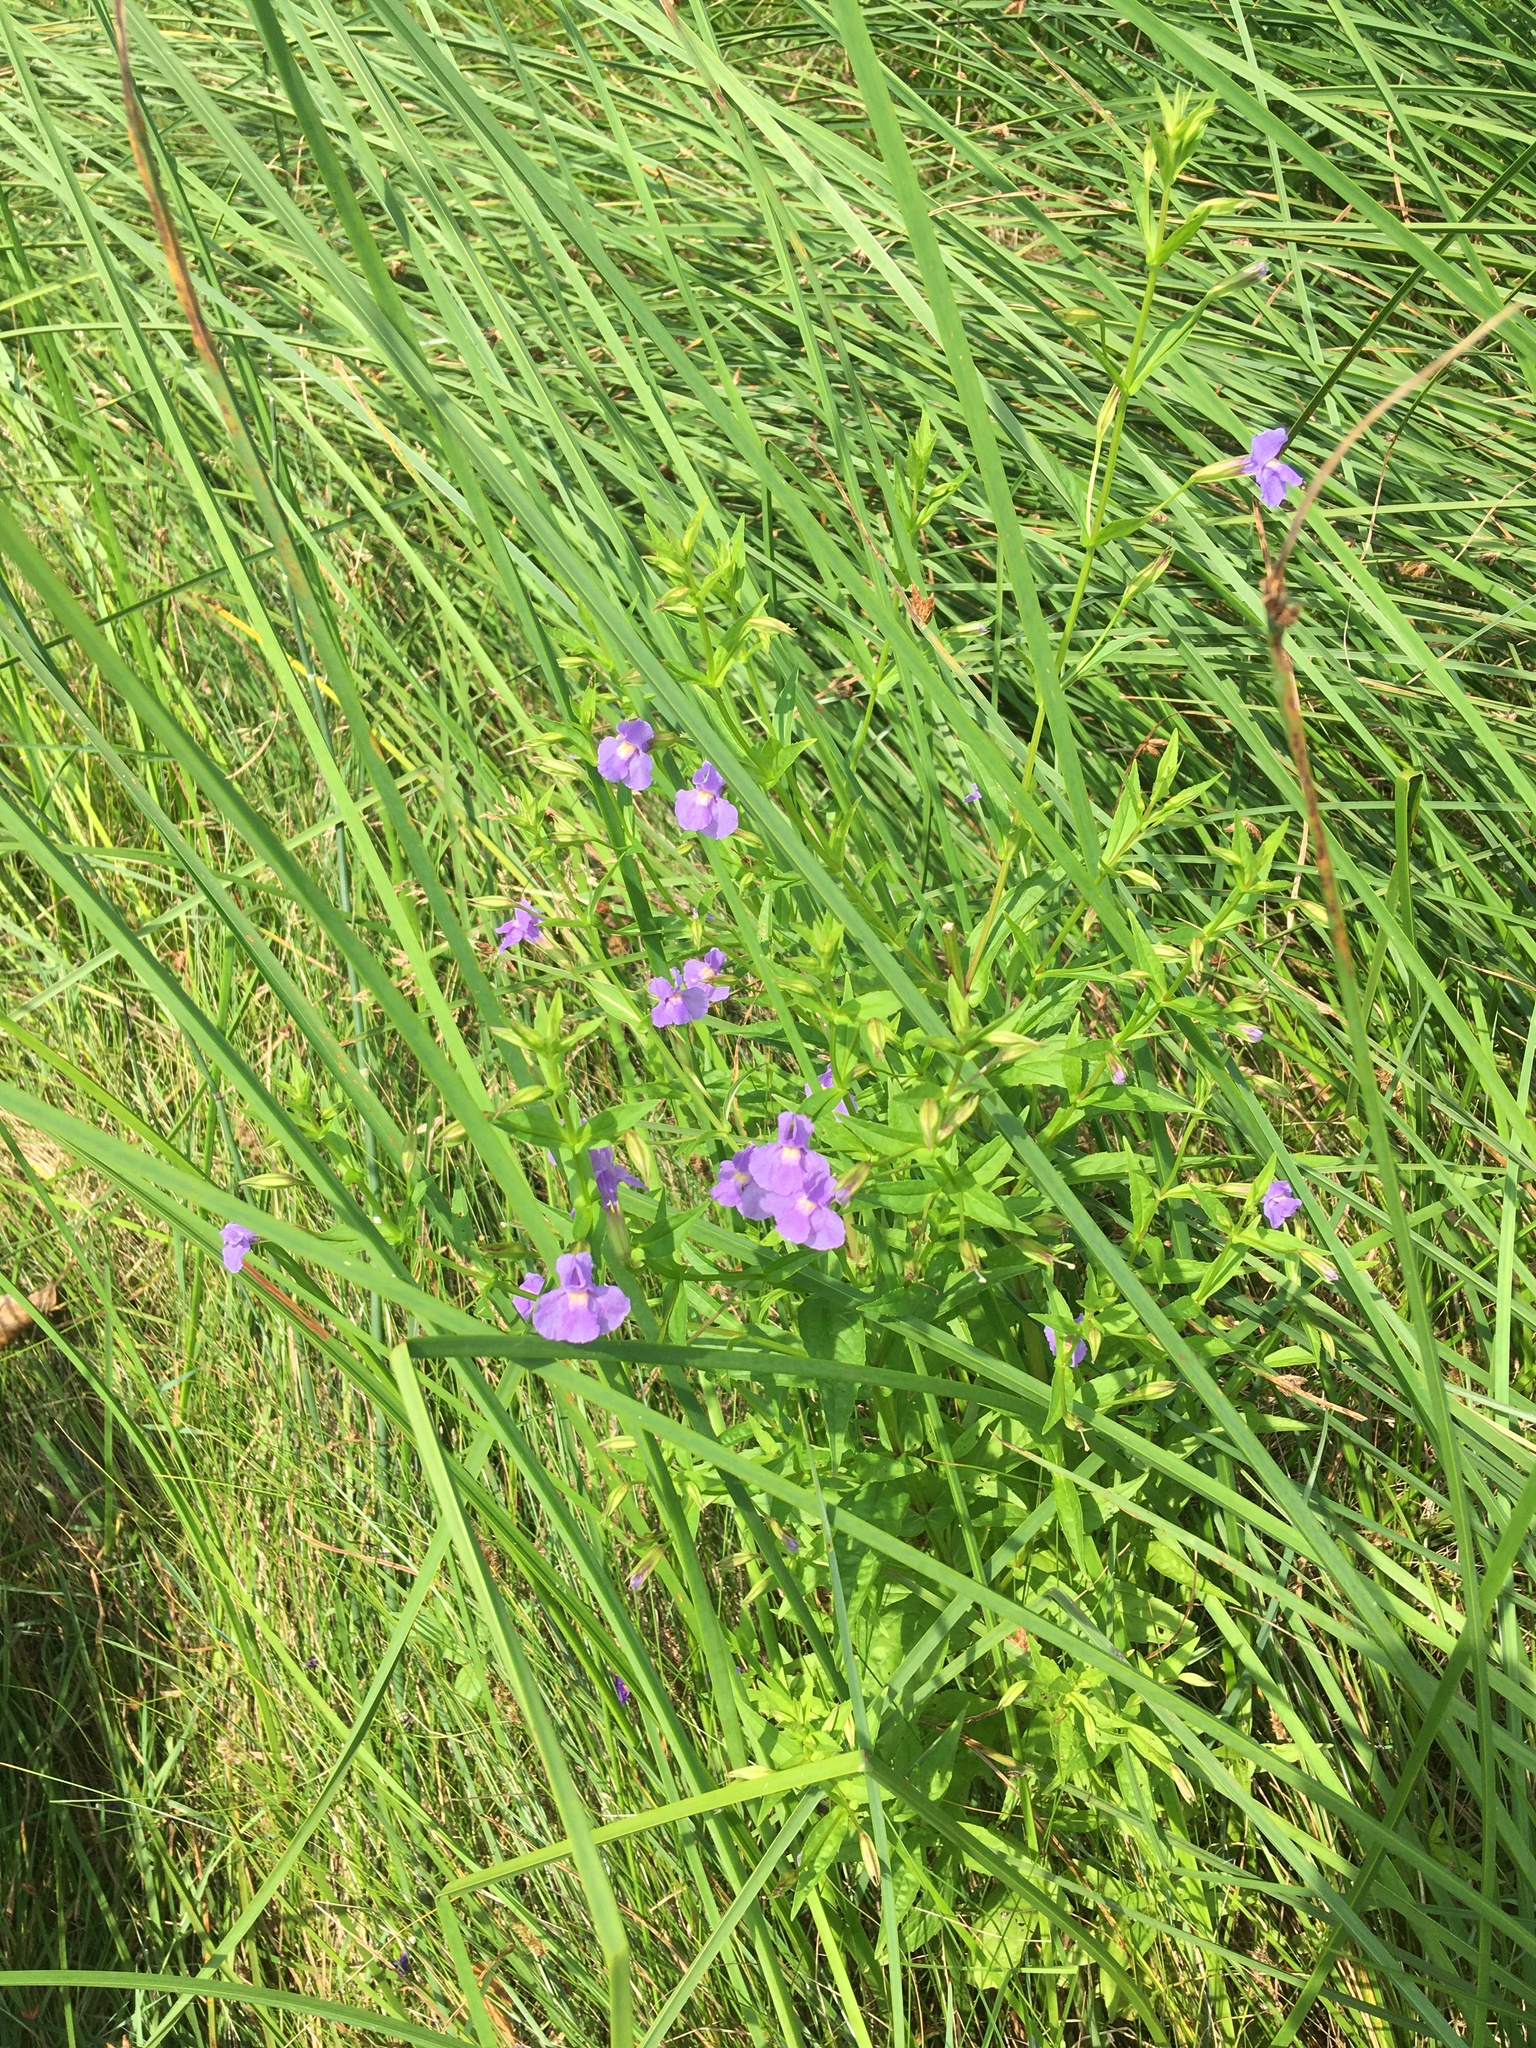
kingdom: Plantae
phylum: Tracheophyta
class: Magnoliopsida
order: Lamiales
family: Phrymaceae
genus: Mimulus
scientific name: Mimulus ringens
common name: Allegheny monkeyflower
